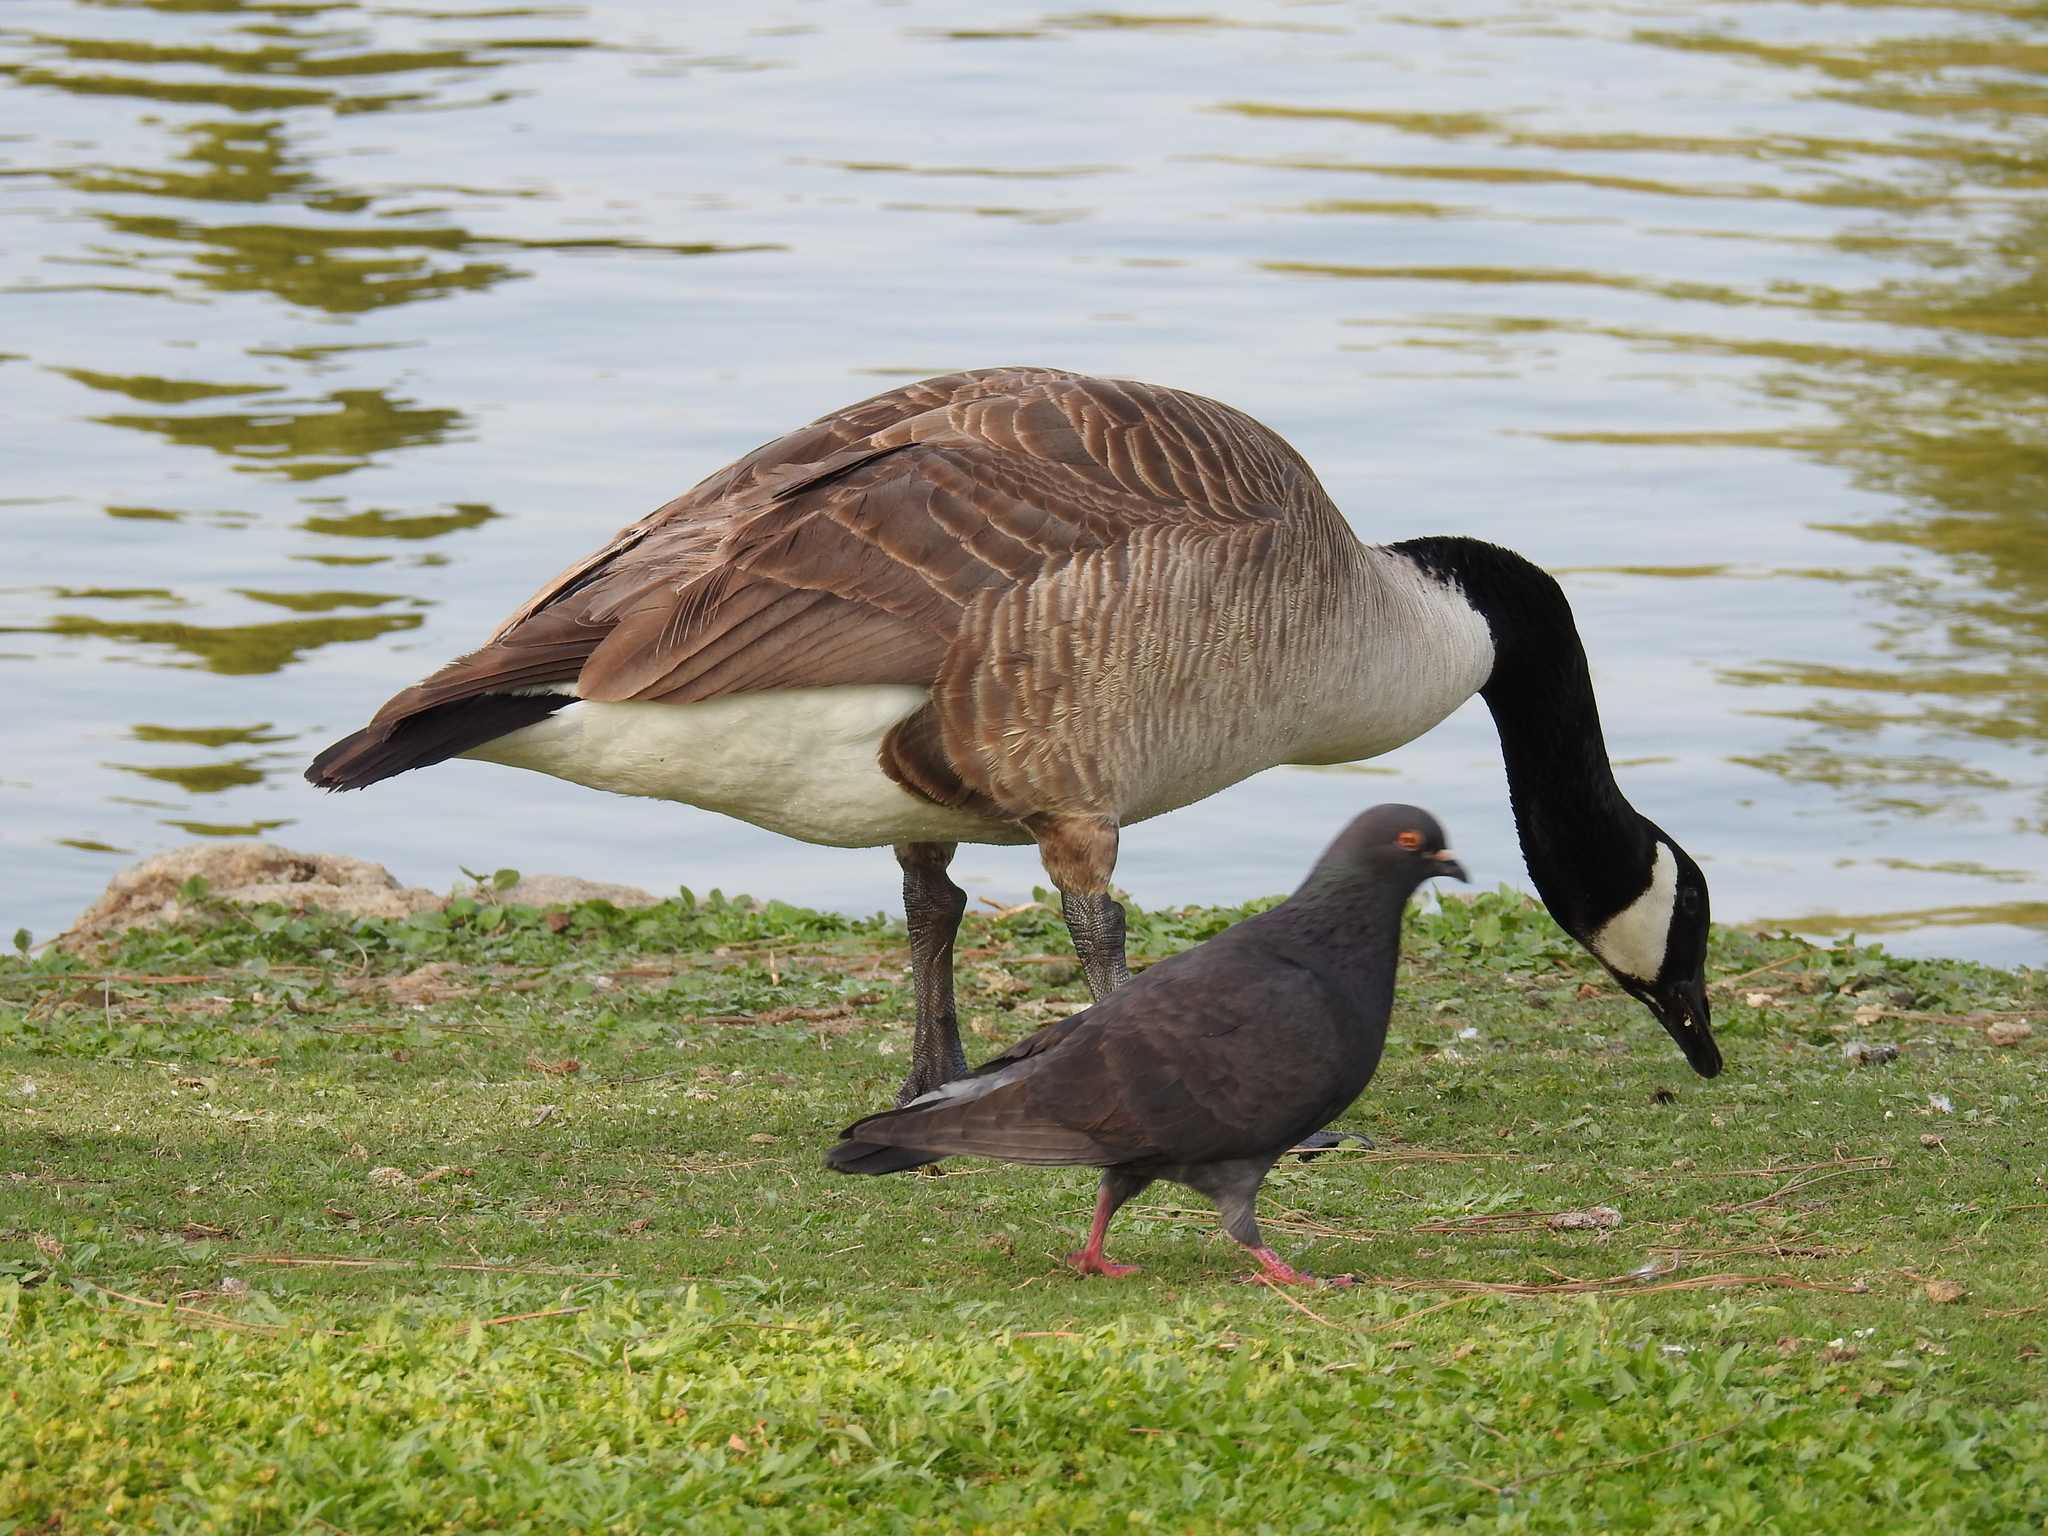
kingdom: Animalia
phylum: Chordata
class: Aves
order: Anseriformes
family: Anatidae
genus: Branta
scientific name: Branta canadensis
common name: Canada goose
